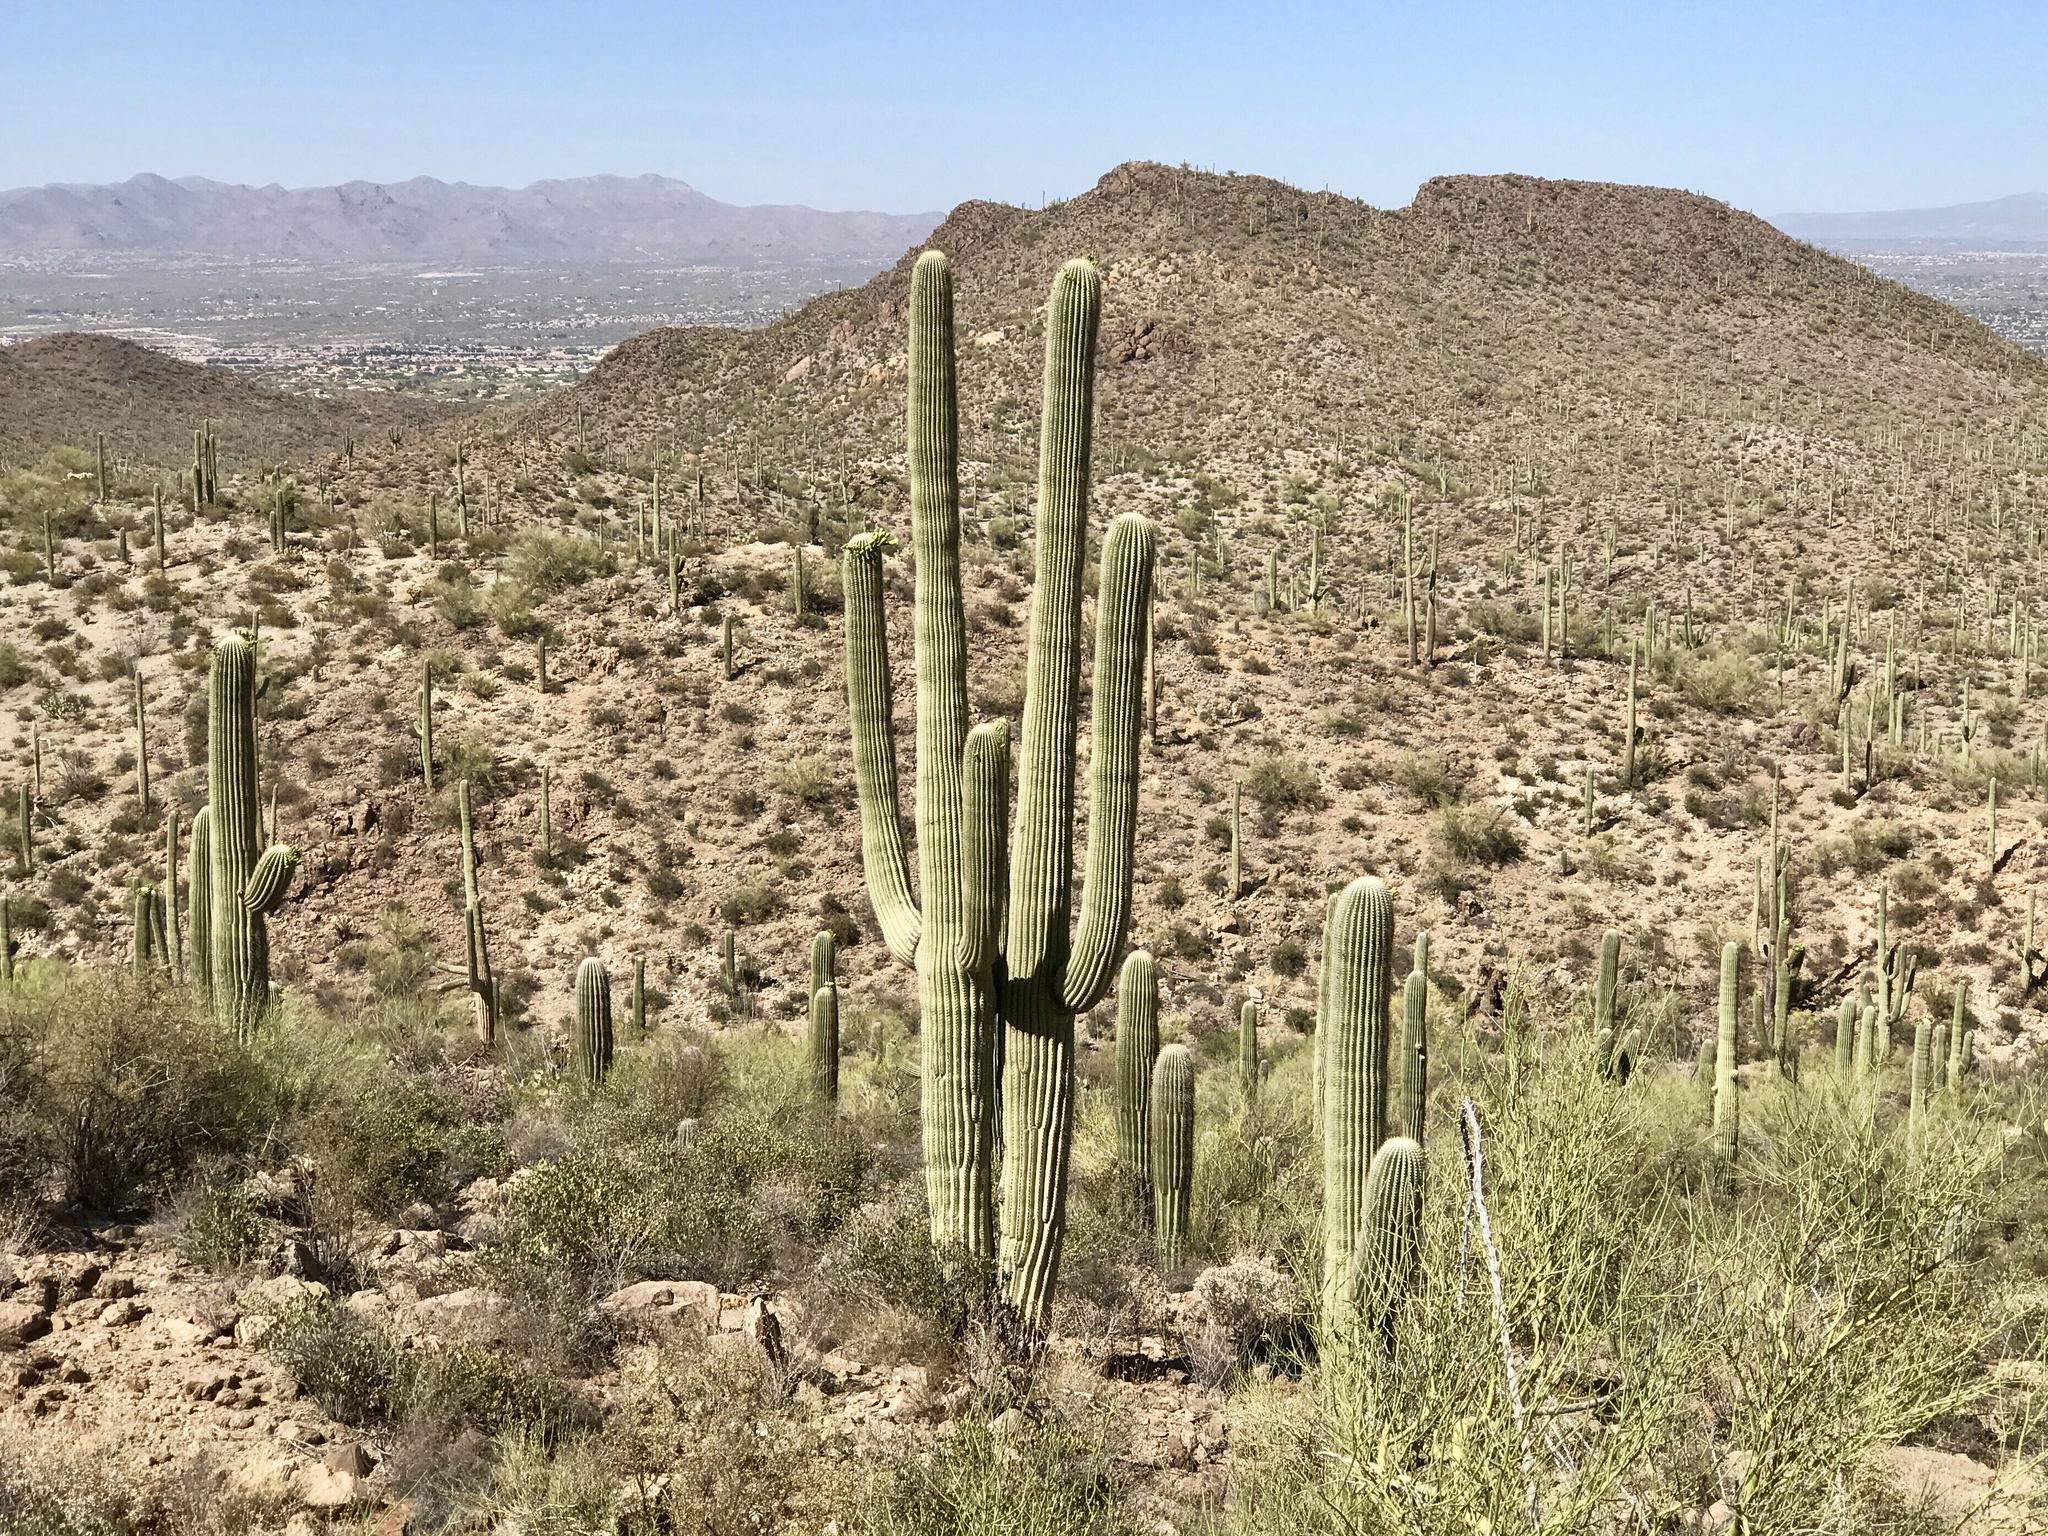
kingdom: Plantae
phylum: Tracheophyta
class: Magnoliopsida
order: Caryophyllales
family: Cactaceae
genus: Carnegiea
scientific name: Carnegiea gigantea
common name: Saguaro
